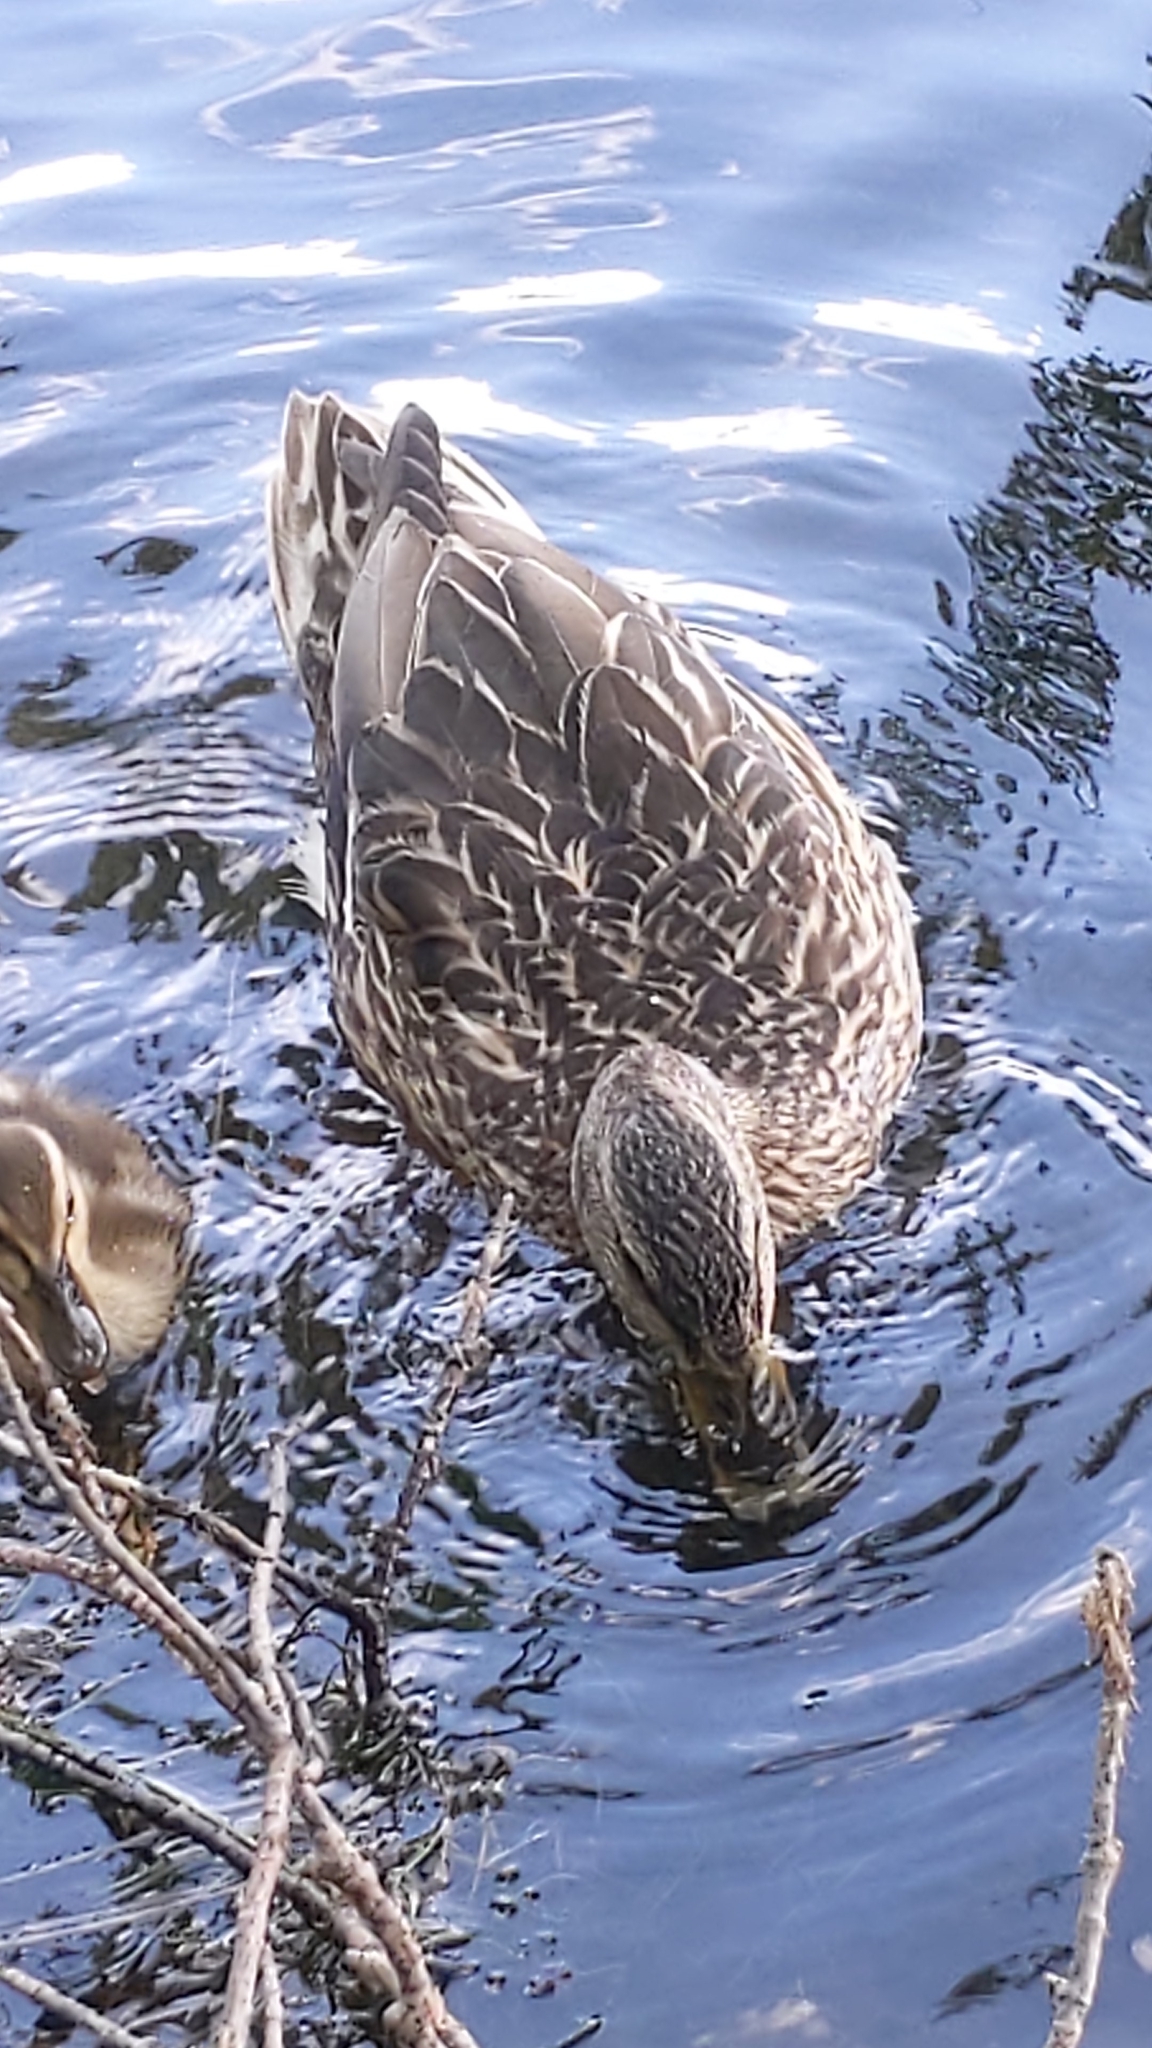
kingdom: Animalia
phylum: Chordata
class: Aves
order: Anseriformes
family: Anatidae
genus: Anas
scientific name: Anas platyrhynchos
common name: Mallard
